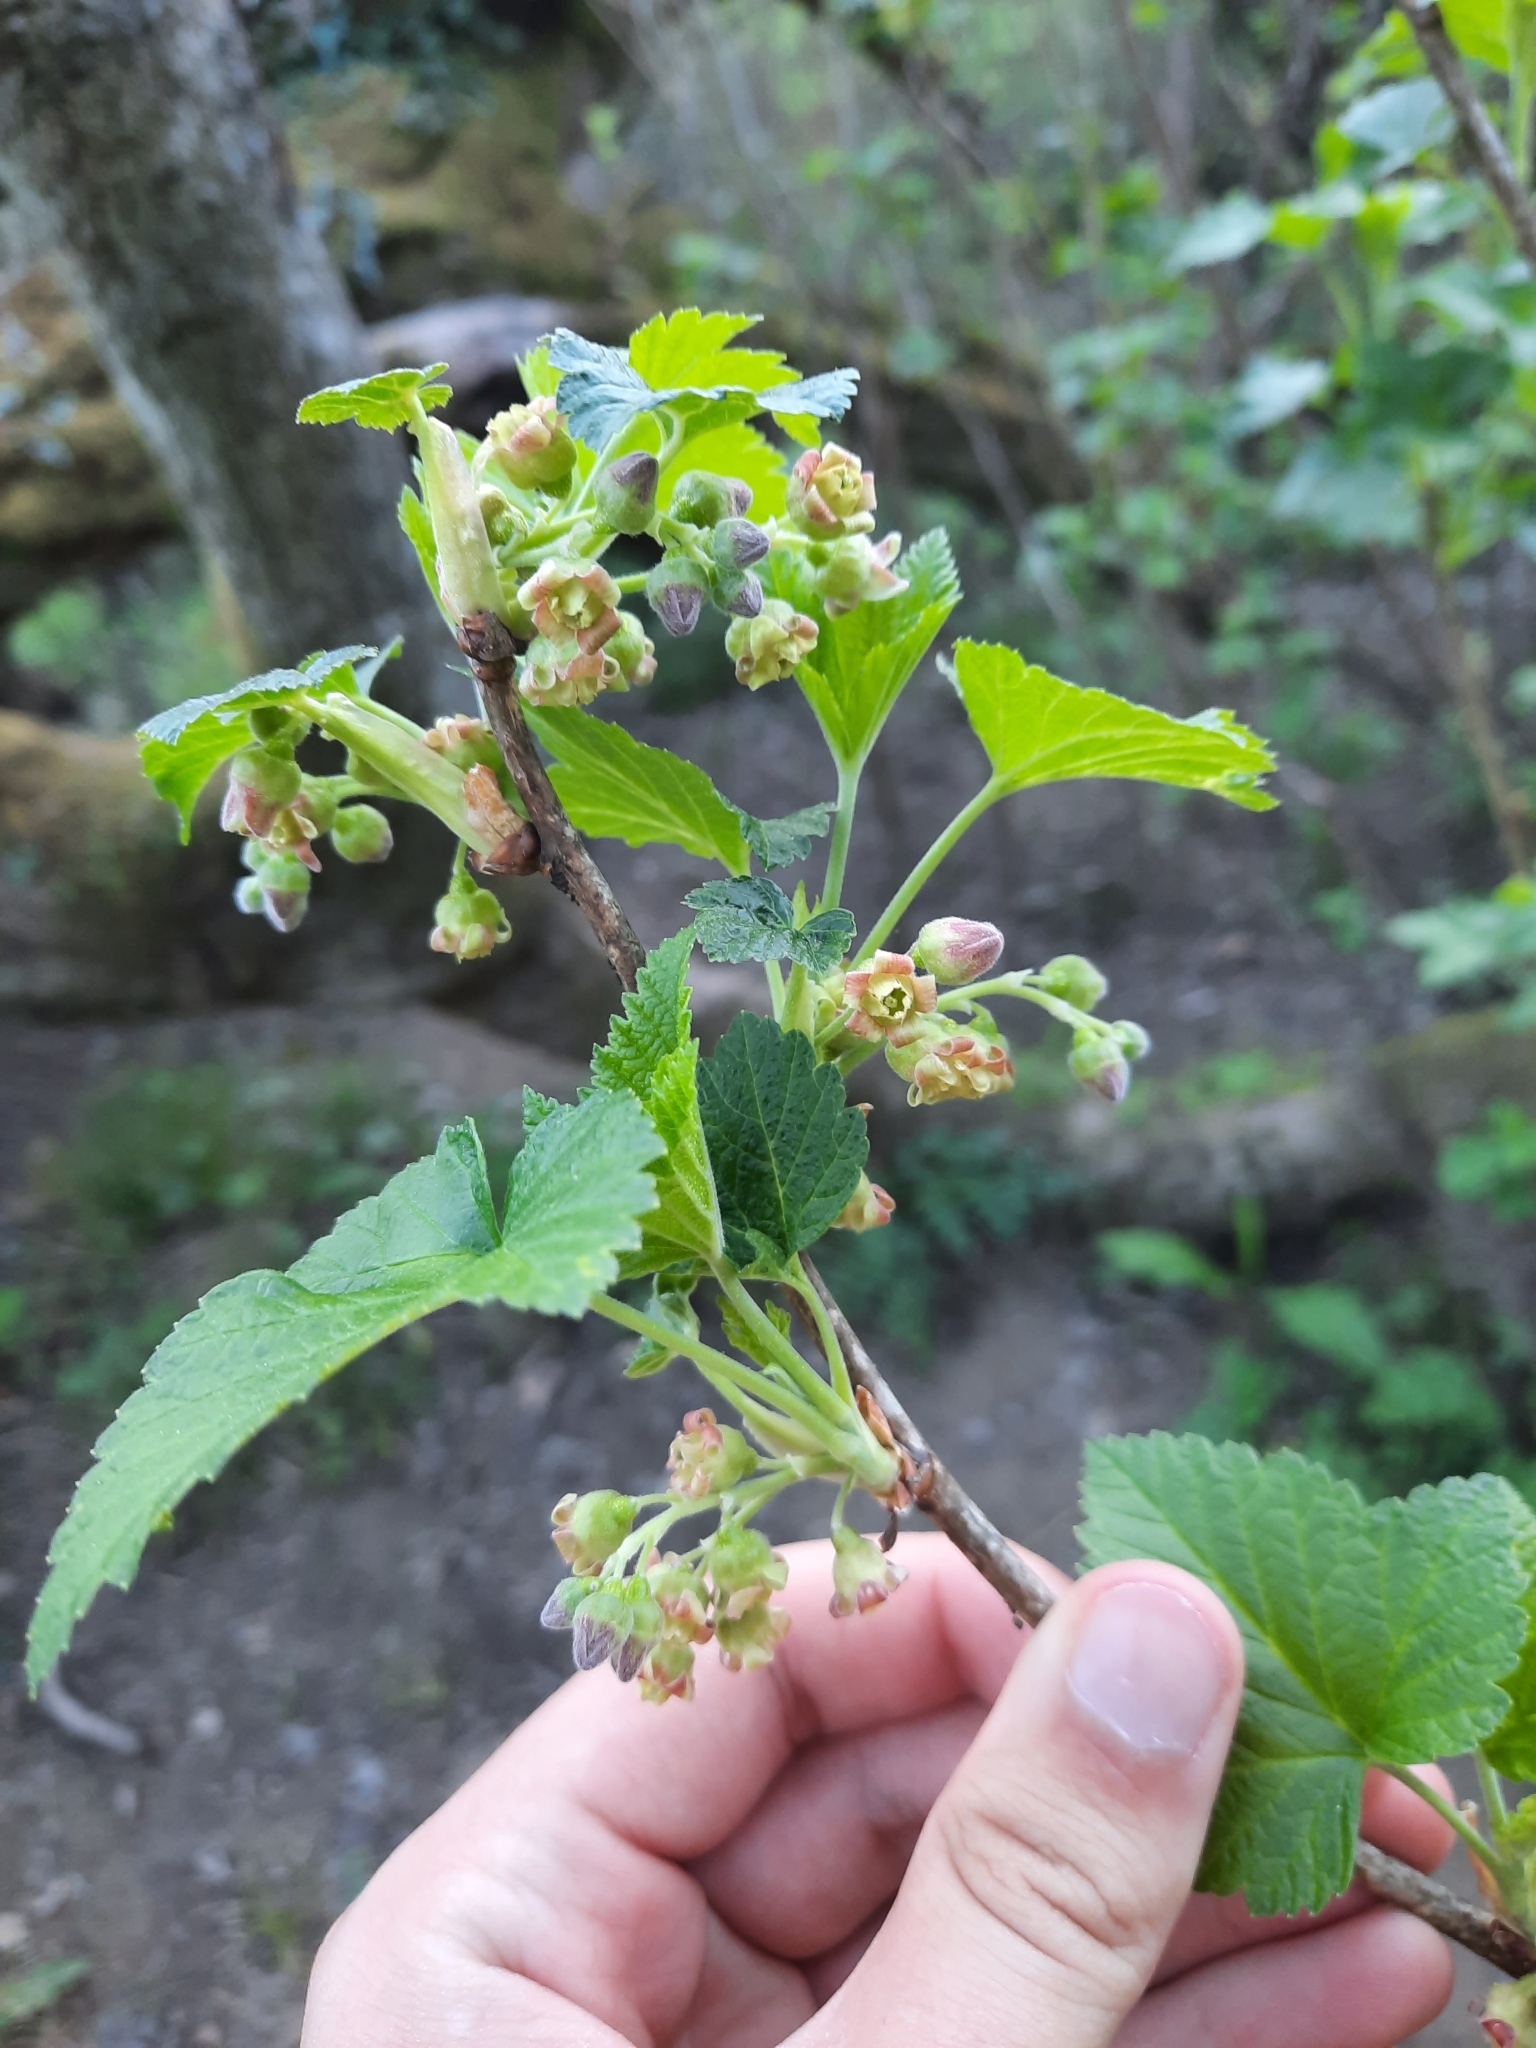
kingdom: Plantae
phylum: Tracheophyta
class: Magnoliopsida
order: Saxifragales
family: Grossulariaceae
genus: Ribes
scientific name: Ribes nigrum
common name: Black currant
